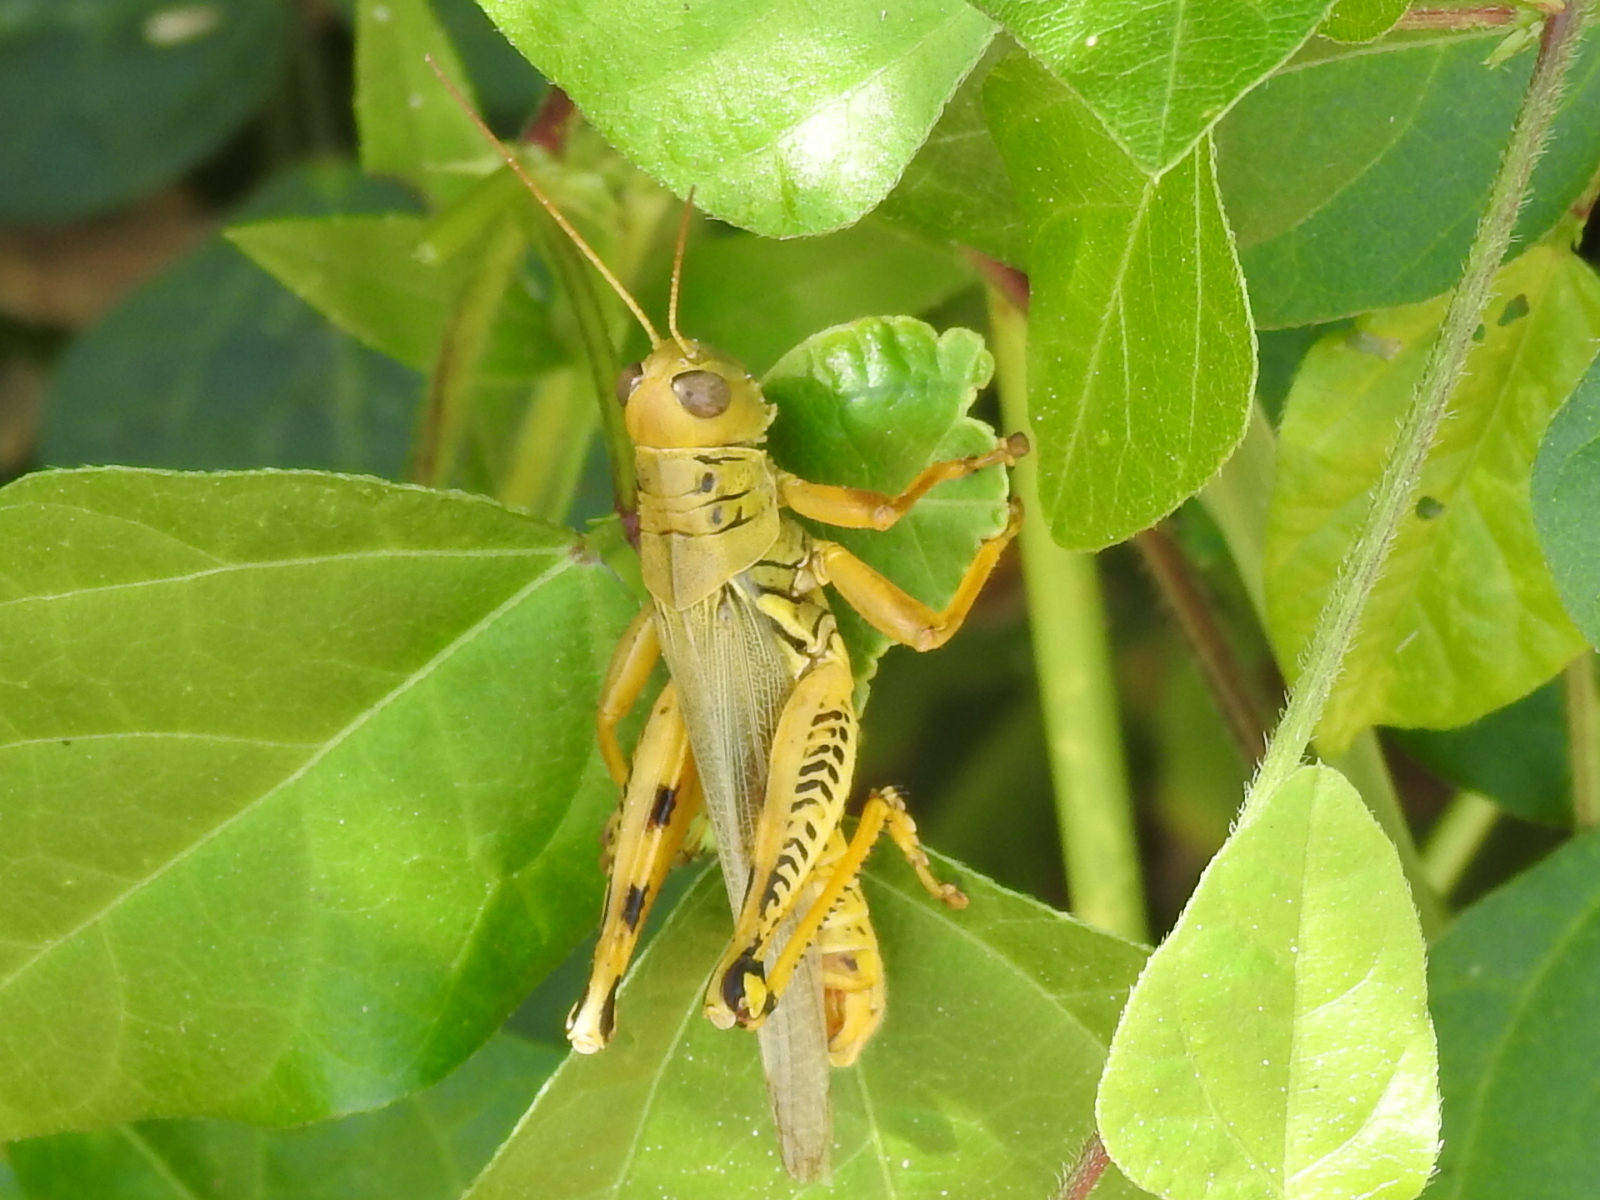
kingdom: Animalia
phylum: Arthropoda
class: Insecta
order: Orthoptera
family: Acrididae
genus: Melanoplus
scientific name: Melanoplus differentialis
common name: Differential grasshopper
